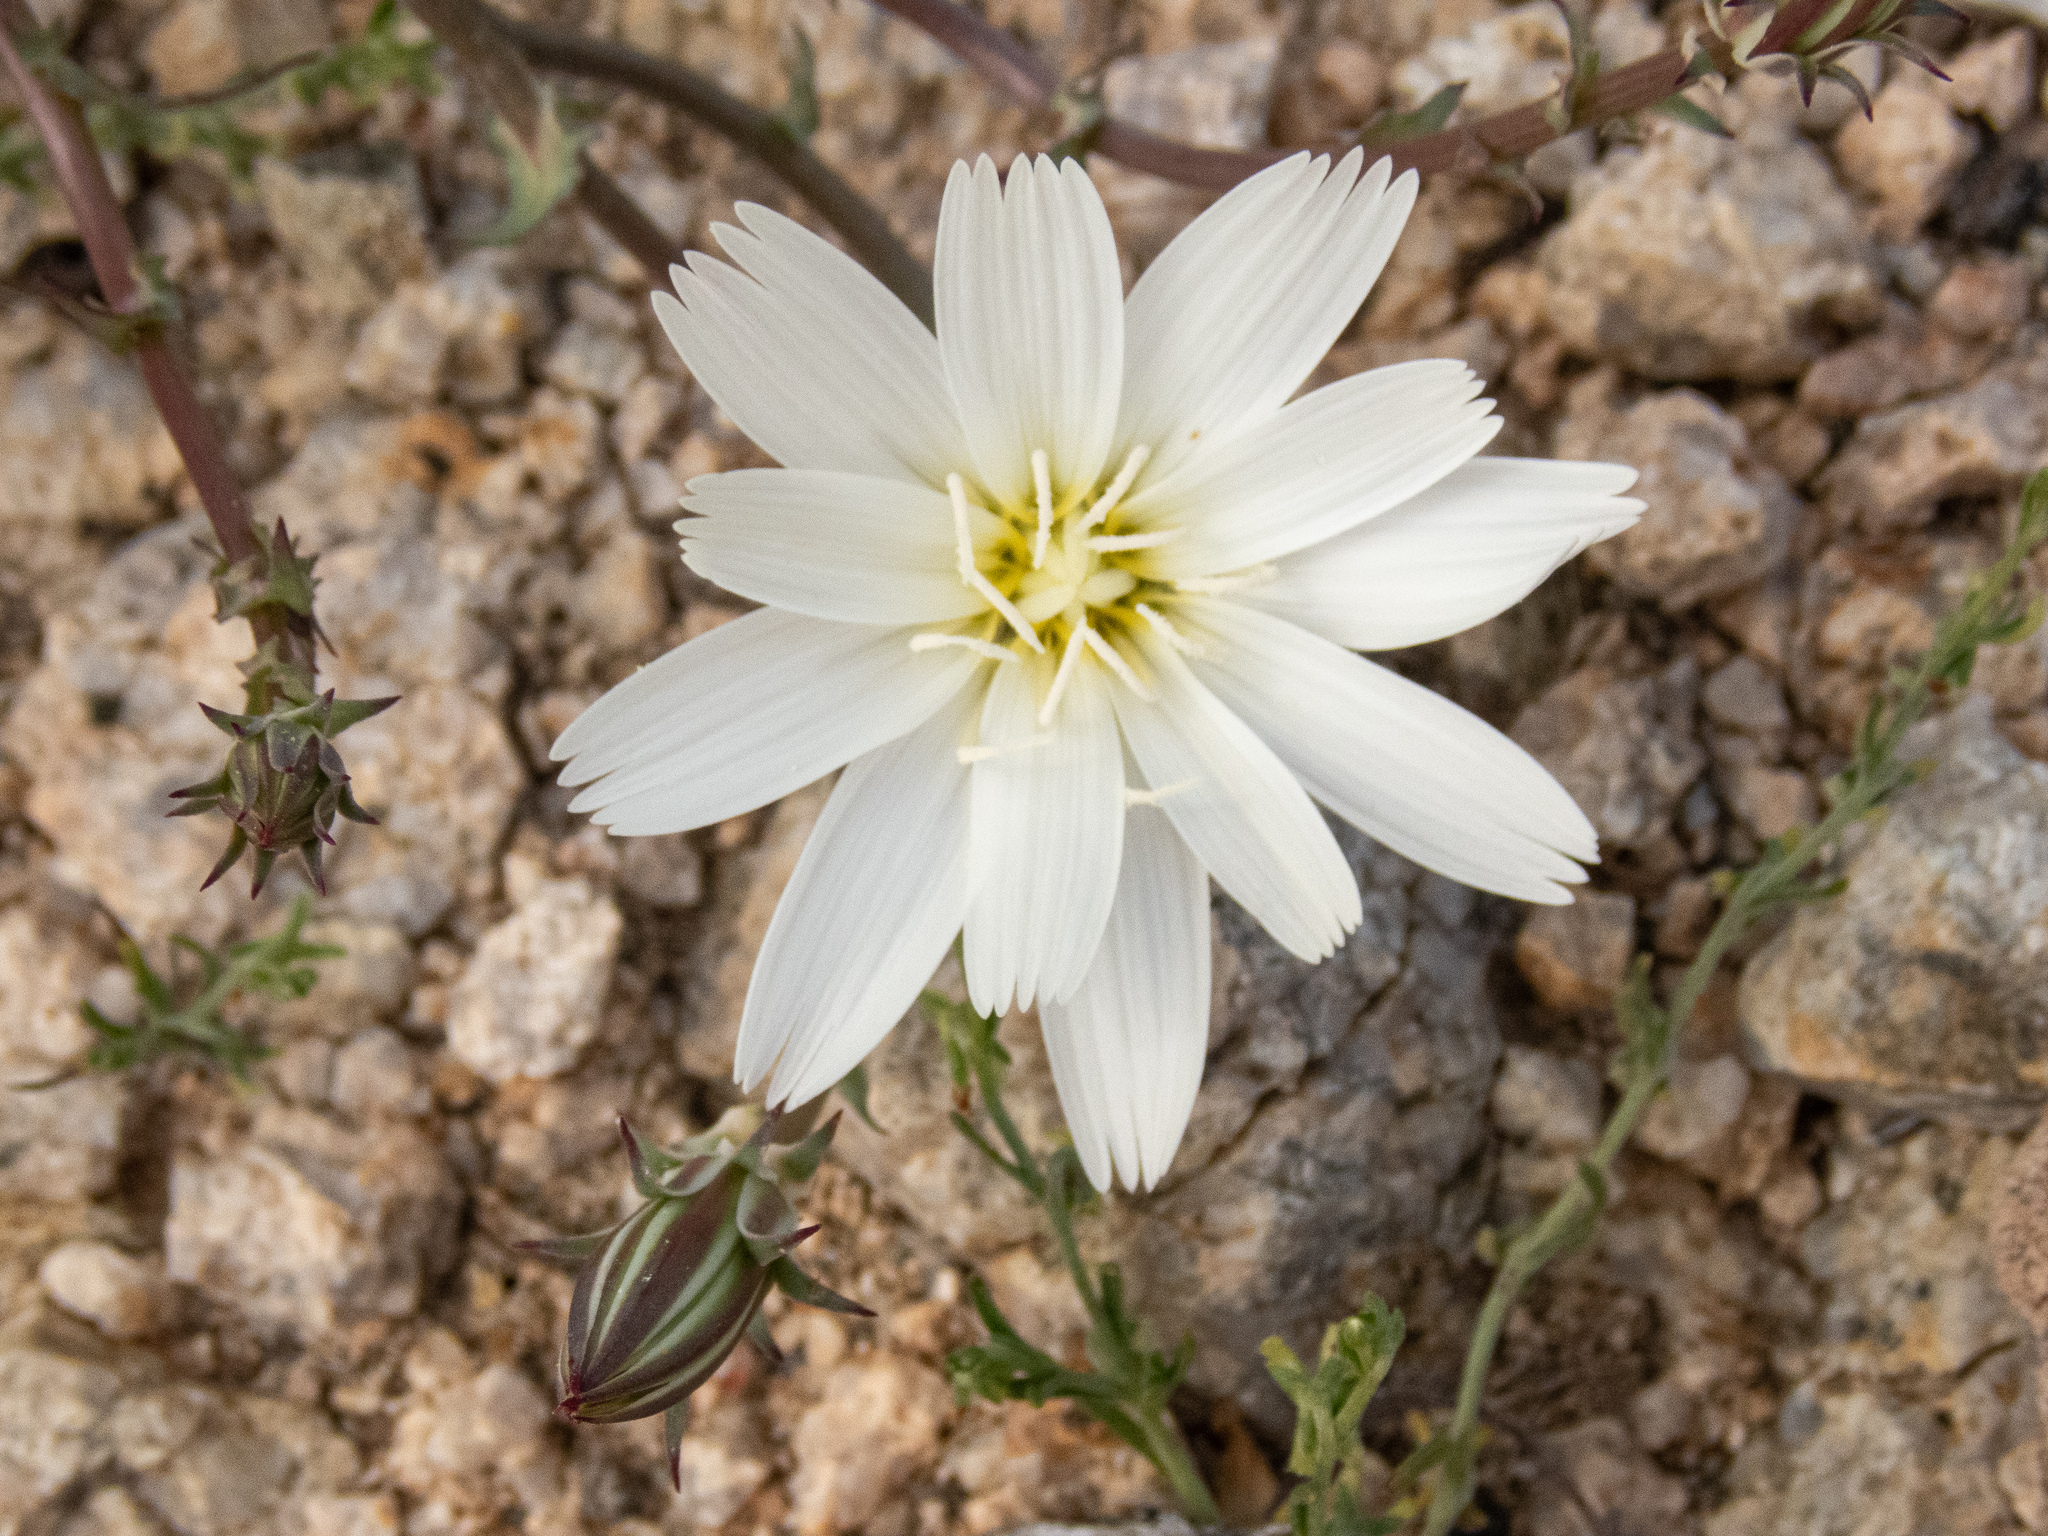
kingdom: Plantae
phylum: Tracheophyta
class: Magnoliopsida
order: Asterales
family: Asteraceae
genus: Rafinesquia
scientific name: Rafinesquia neomexicana
